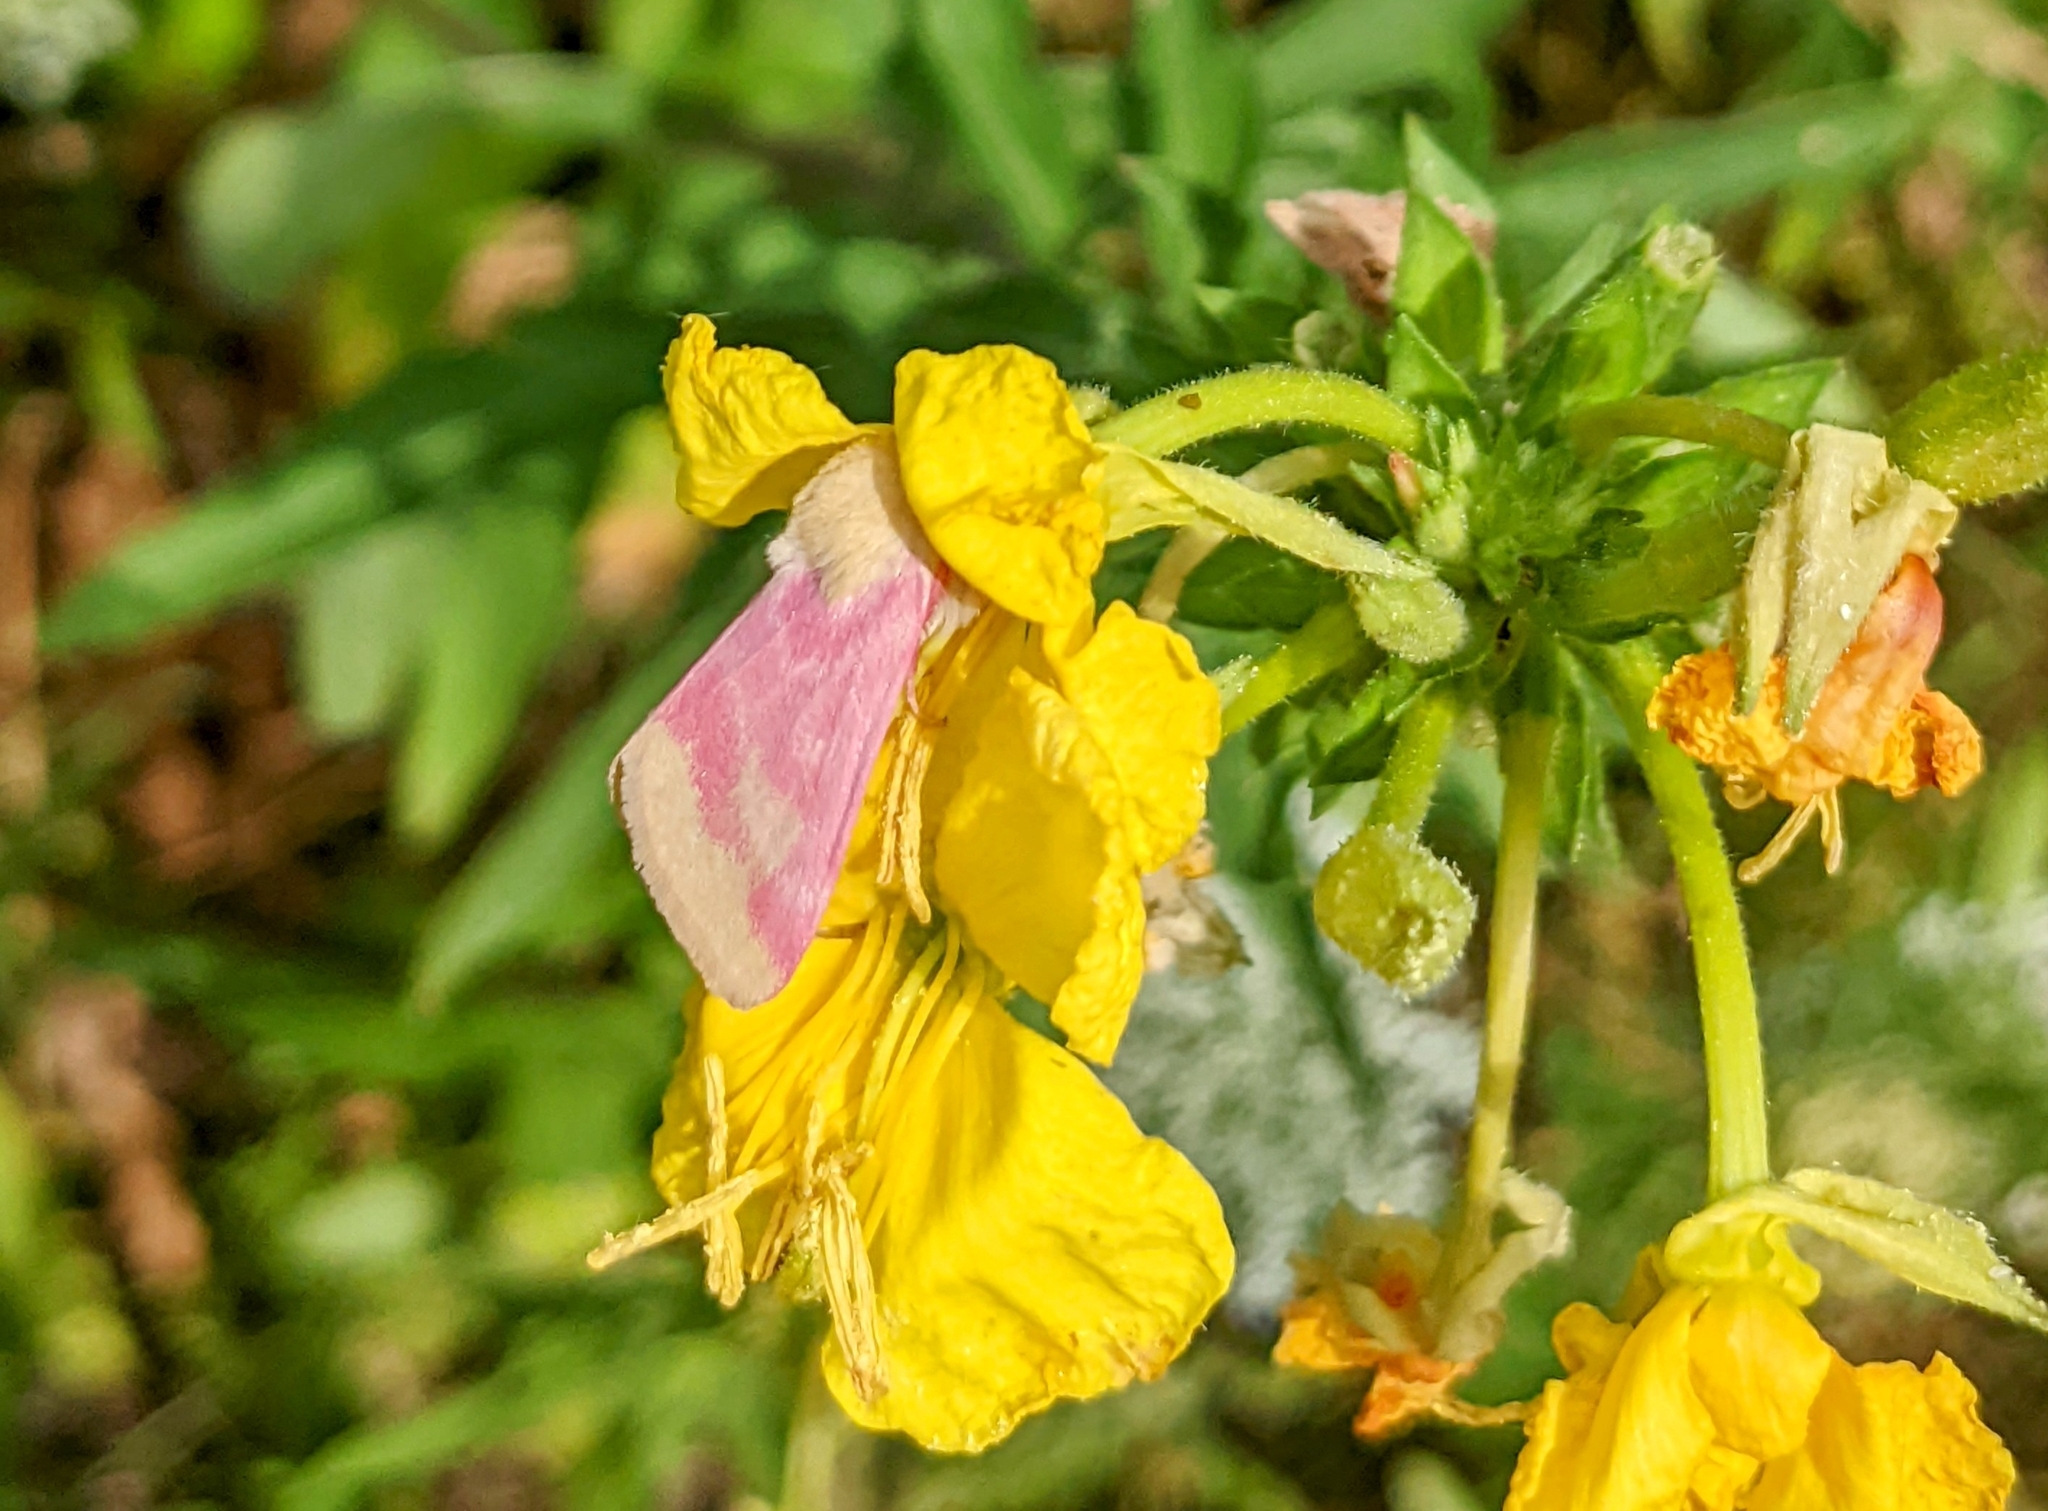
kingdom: Animalia
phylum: Arthropoda
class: Insecta
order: Lepidoptera
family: Noctuidae
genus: Schinia
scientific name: Schinia florida
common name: Primrose moth
